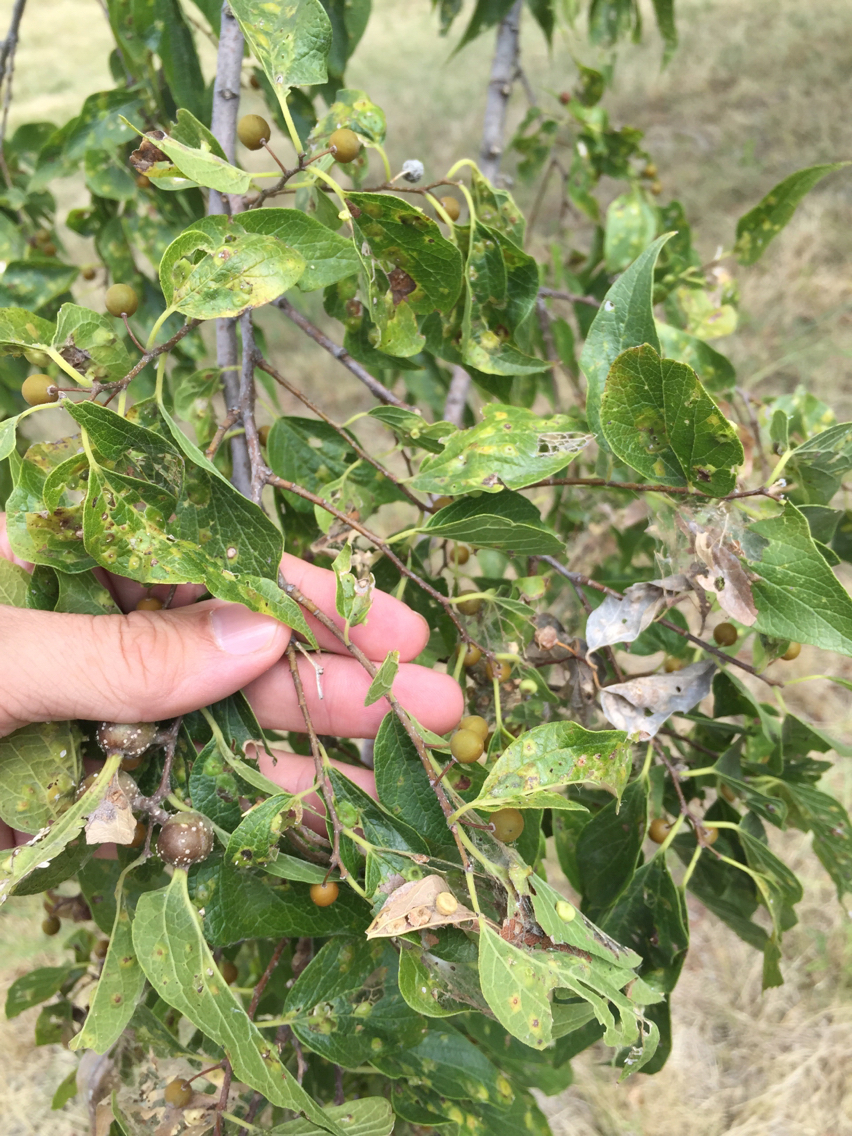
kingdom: Plantae
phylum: Tracheophyta
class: Magnoliopsida
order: Rosales
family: Cannabaceae
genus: Celtis
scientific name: Celtis laevigata
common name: Sugarberry
